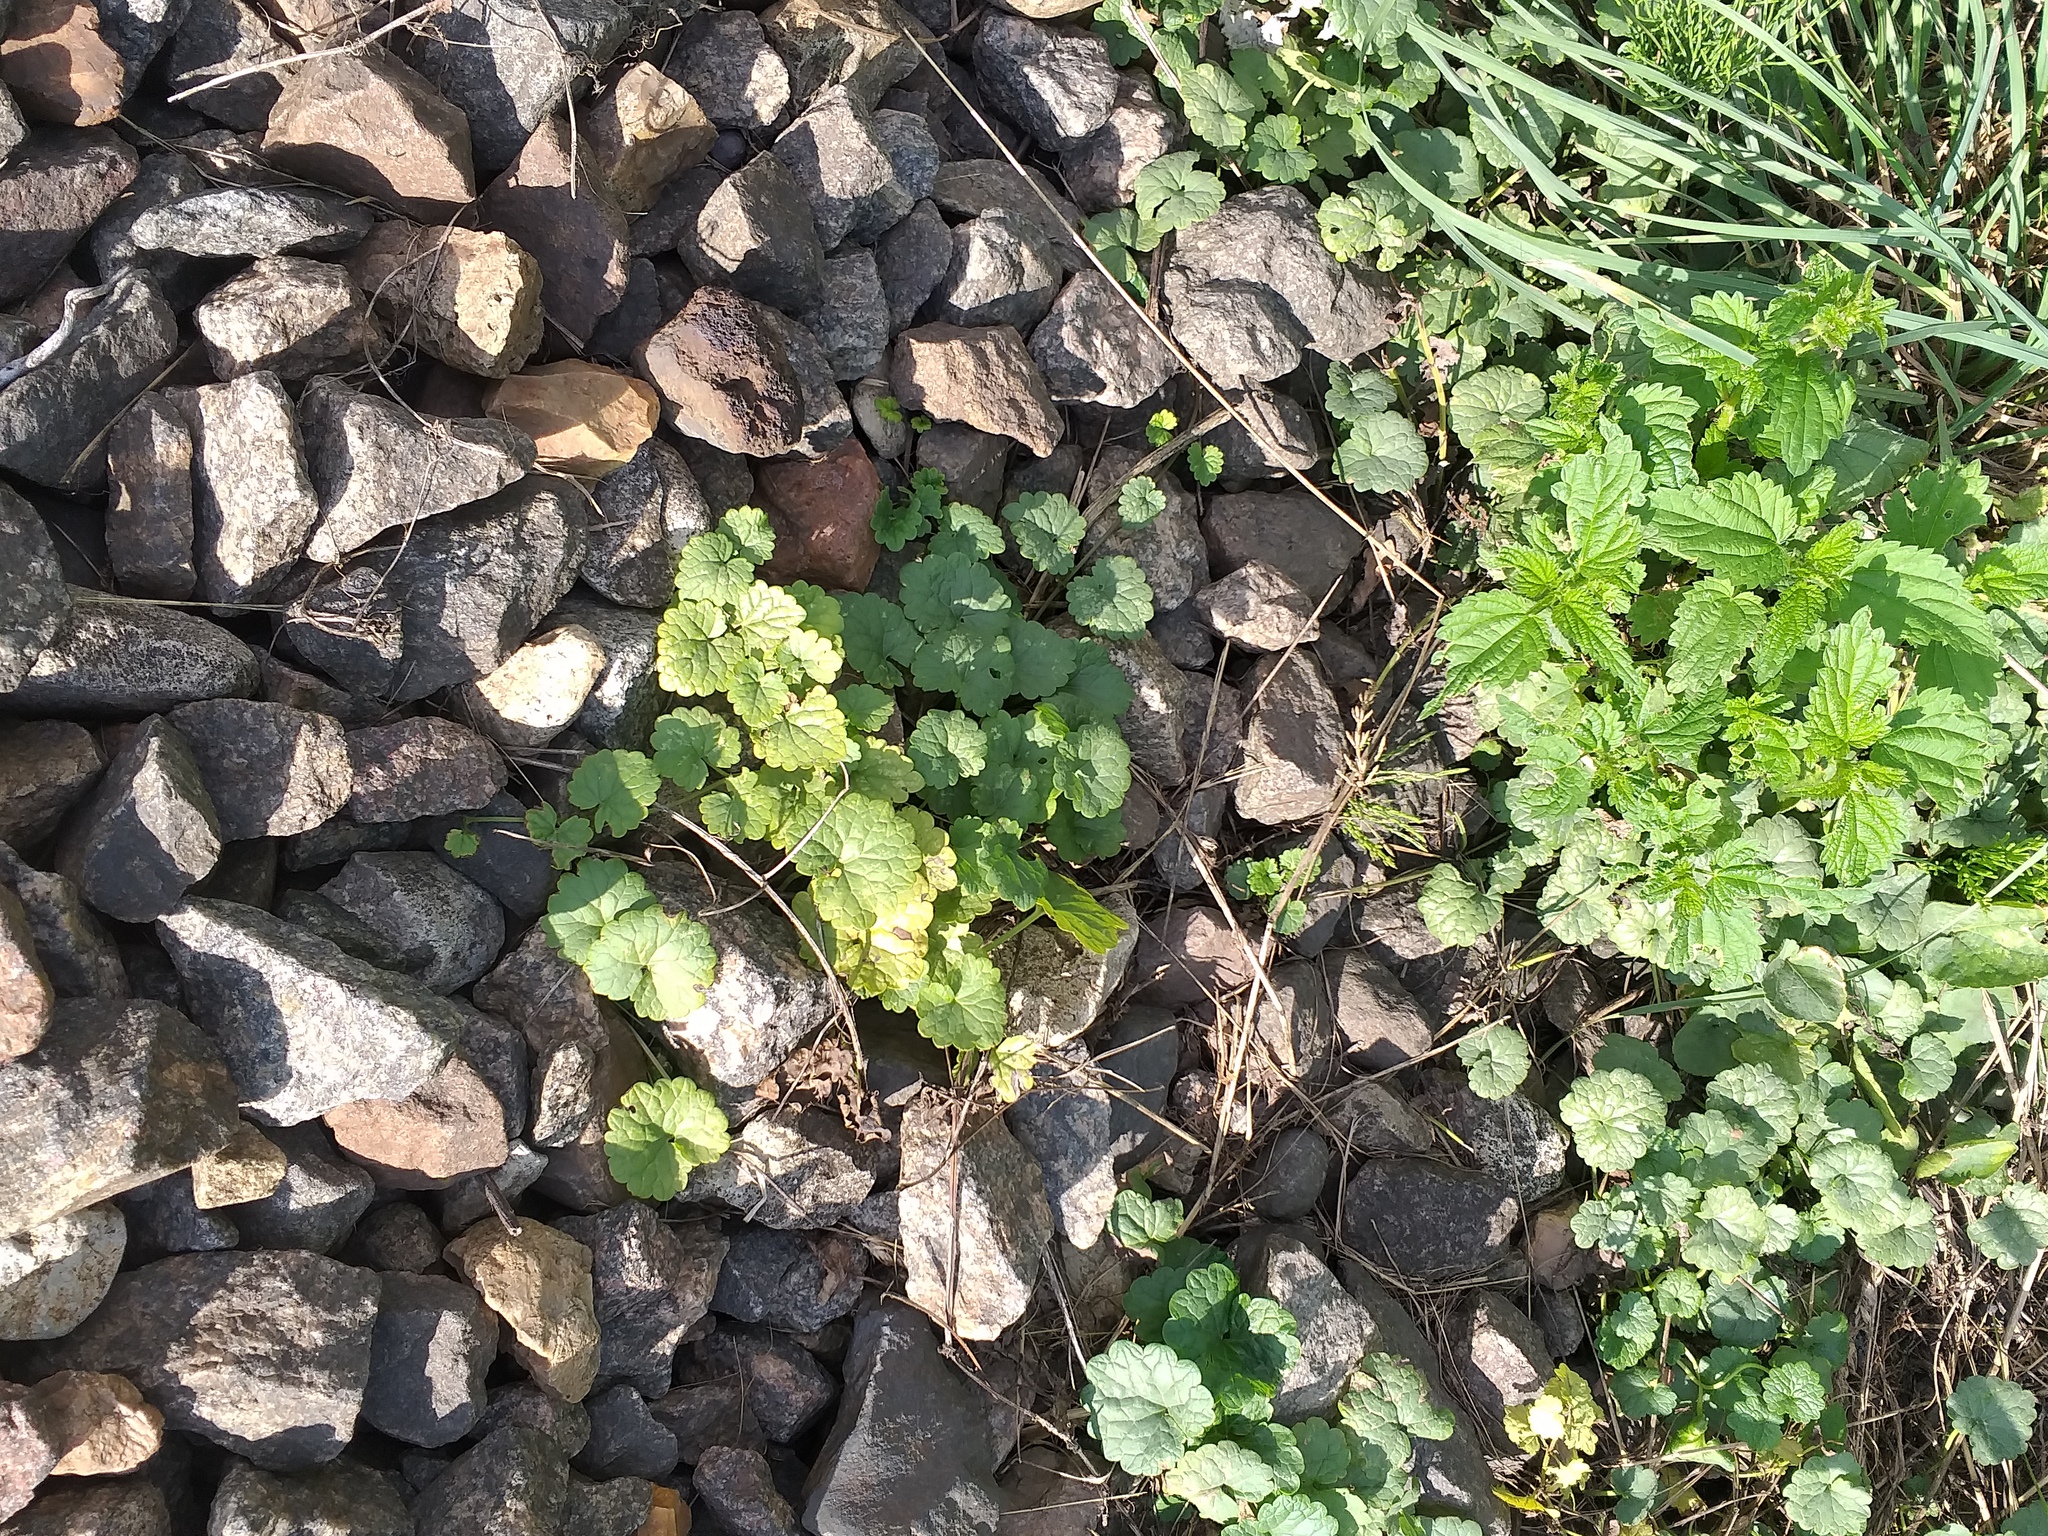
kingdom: Plantae
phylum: Tracheophyta
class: Magnoliopsida
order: Lamiales
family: Lamiaceae
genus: Glechoma
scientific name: Glechoma hederacea
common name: Ground ivy
